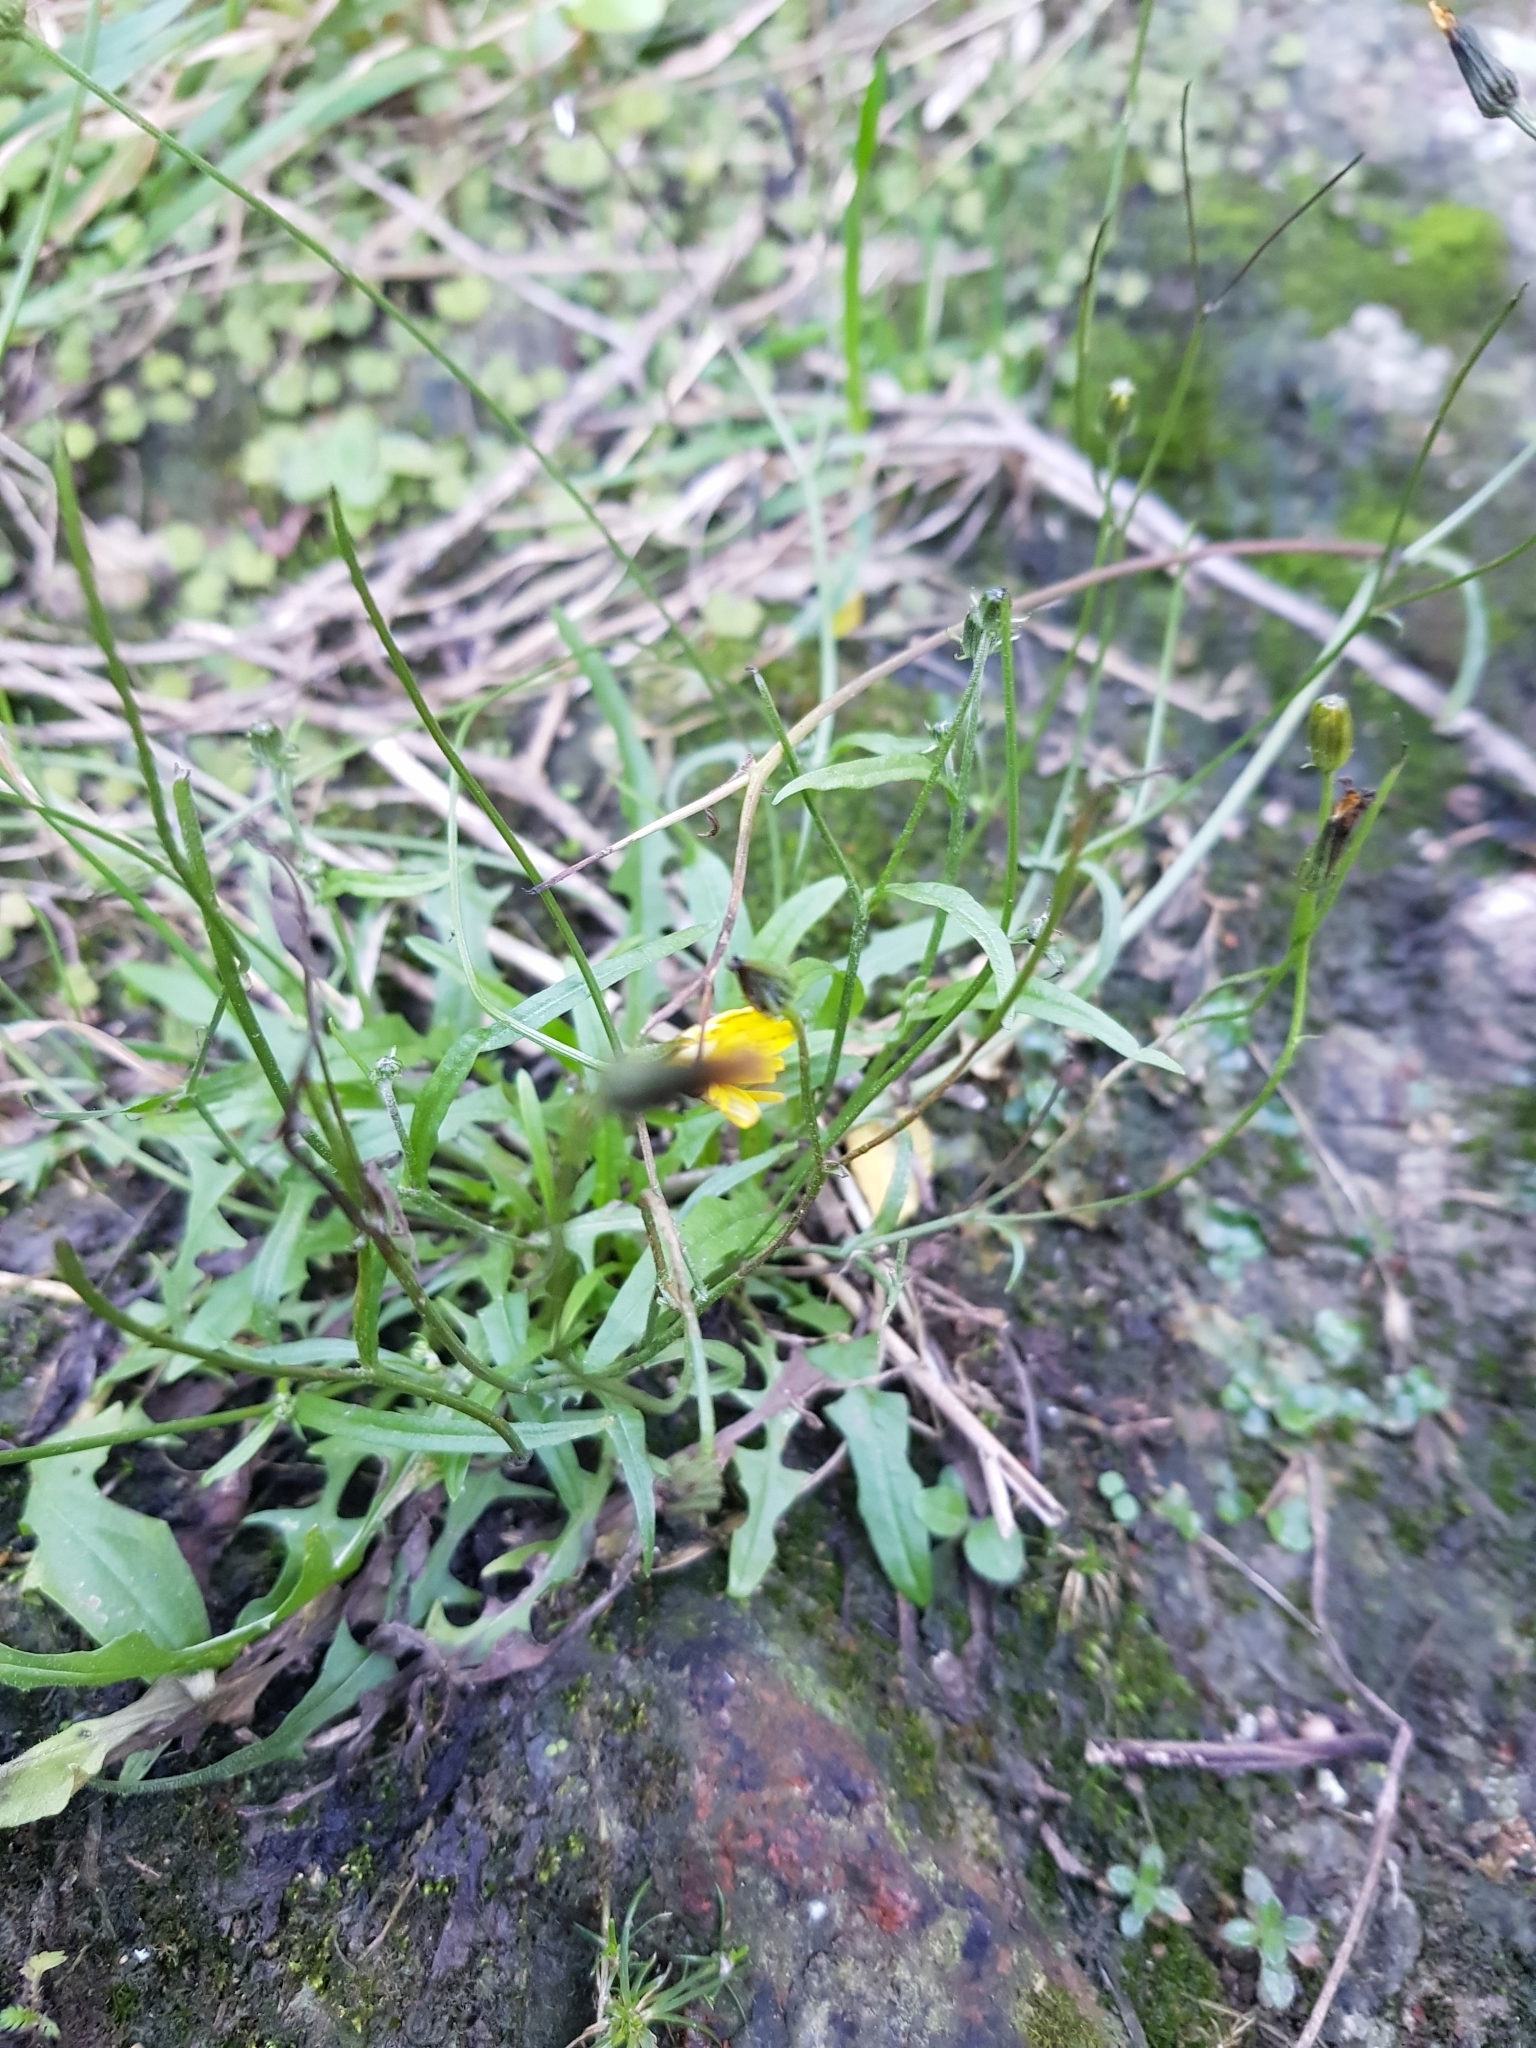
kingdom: Plantae
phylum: Tracheophyta
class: Magnoliopsida
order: Asterales
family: Asteraceae
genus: Crepis
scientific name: Crepis capillaris
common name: Smooth hawksbeard
